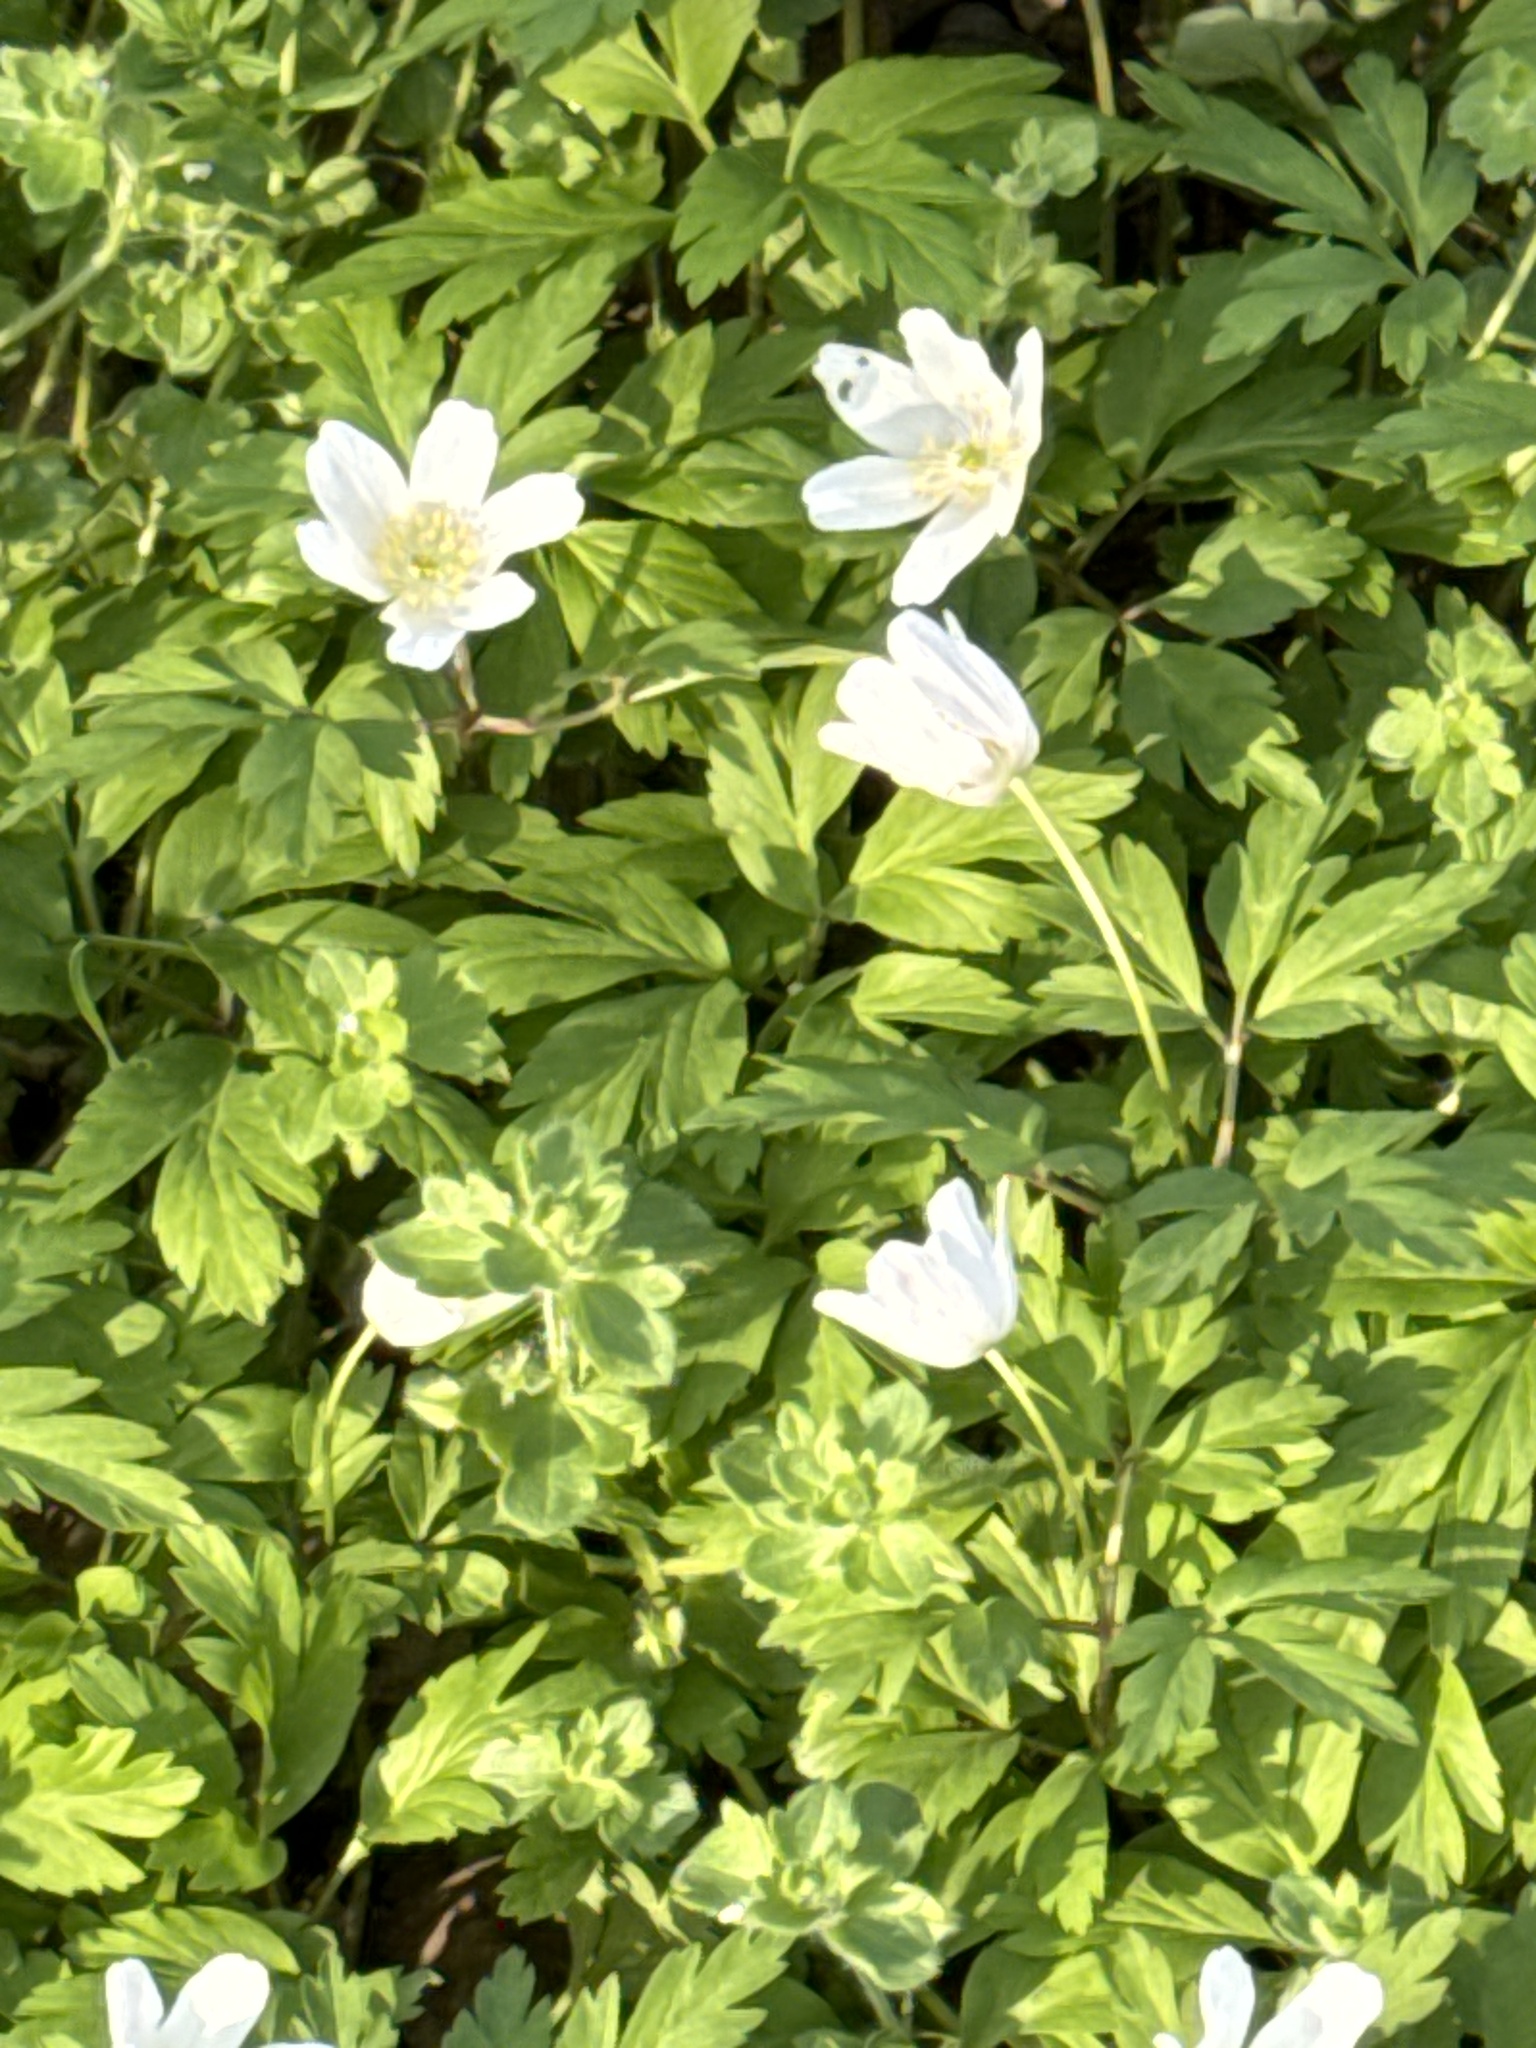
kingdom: Plantae
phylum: Tracheophyta
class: Magnoliopsida
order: Ranunculales
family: Ranunculaceae
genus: Anemone
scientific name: Anemone nemorosa
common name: Wood anemone
